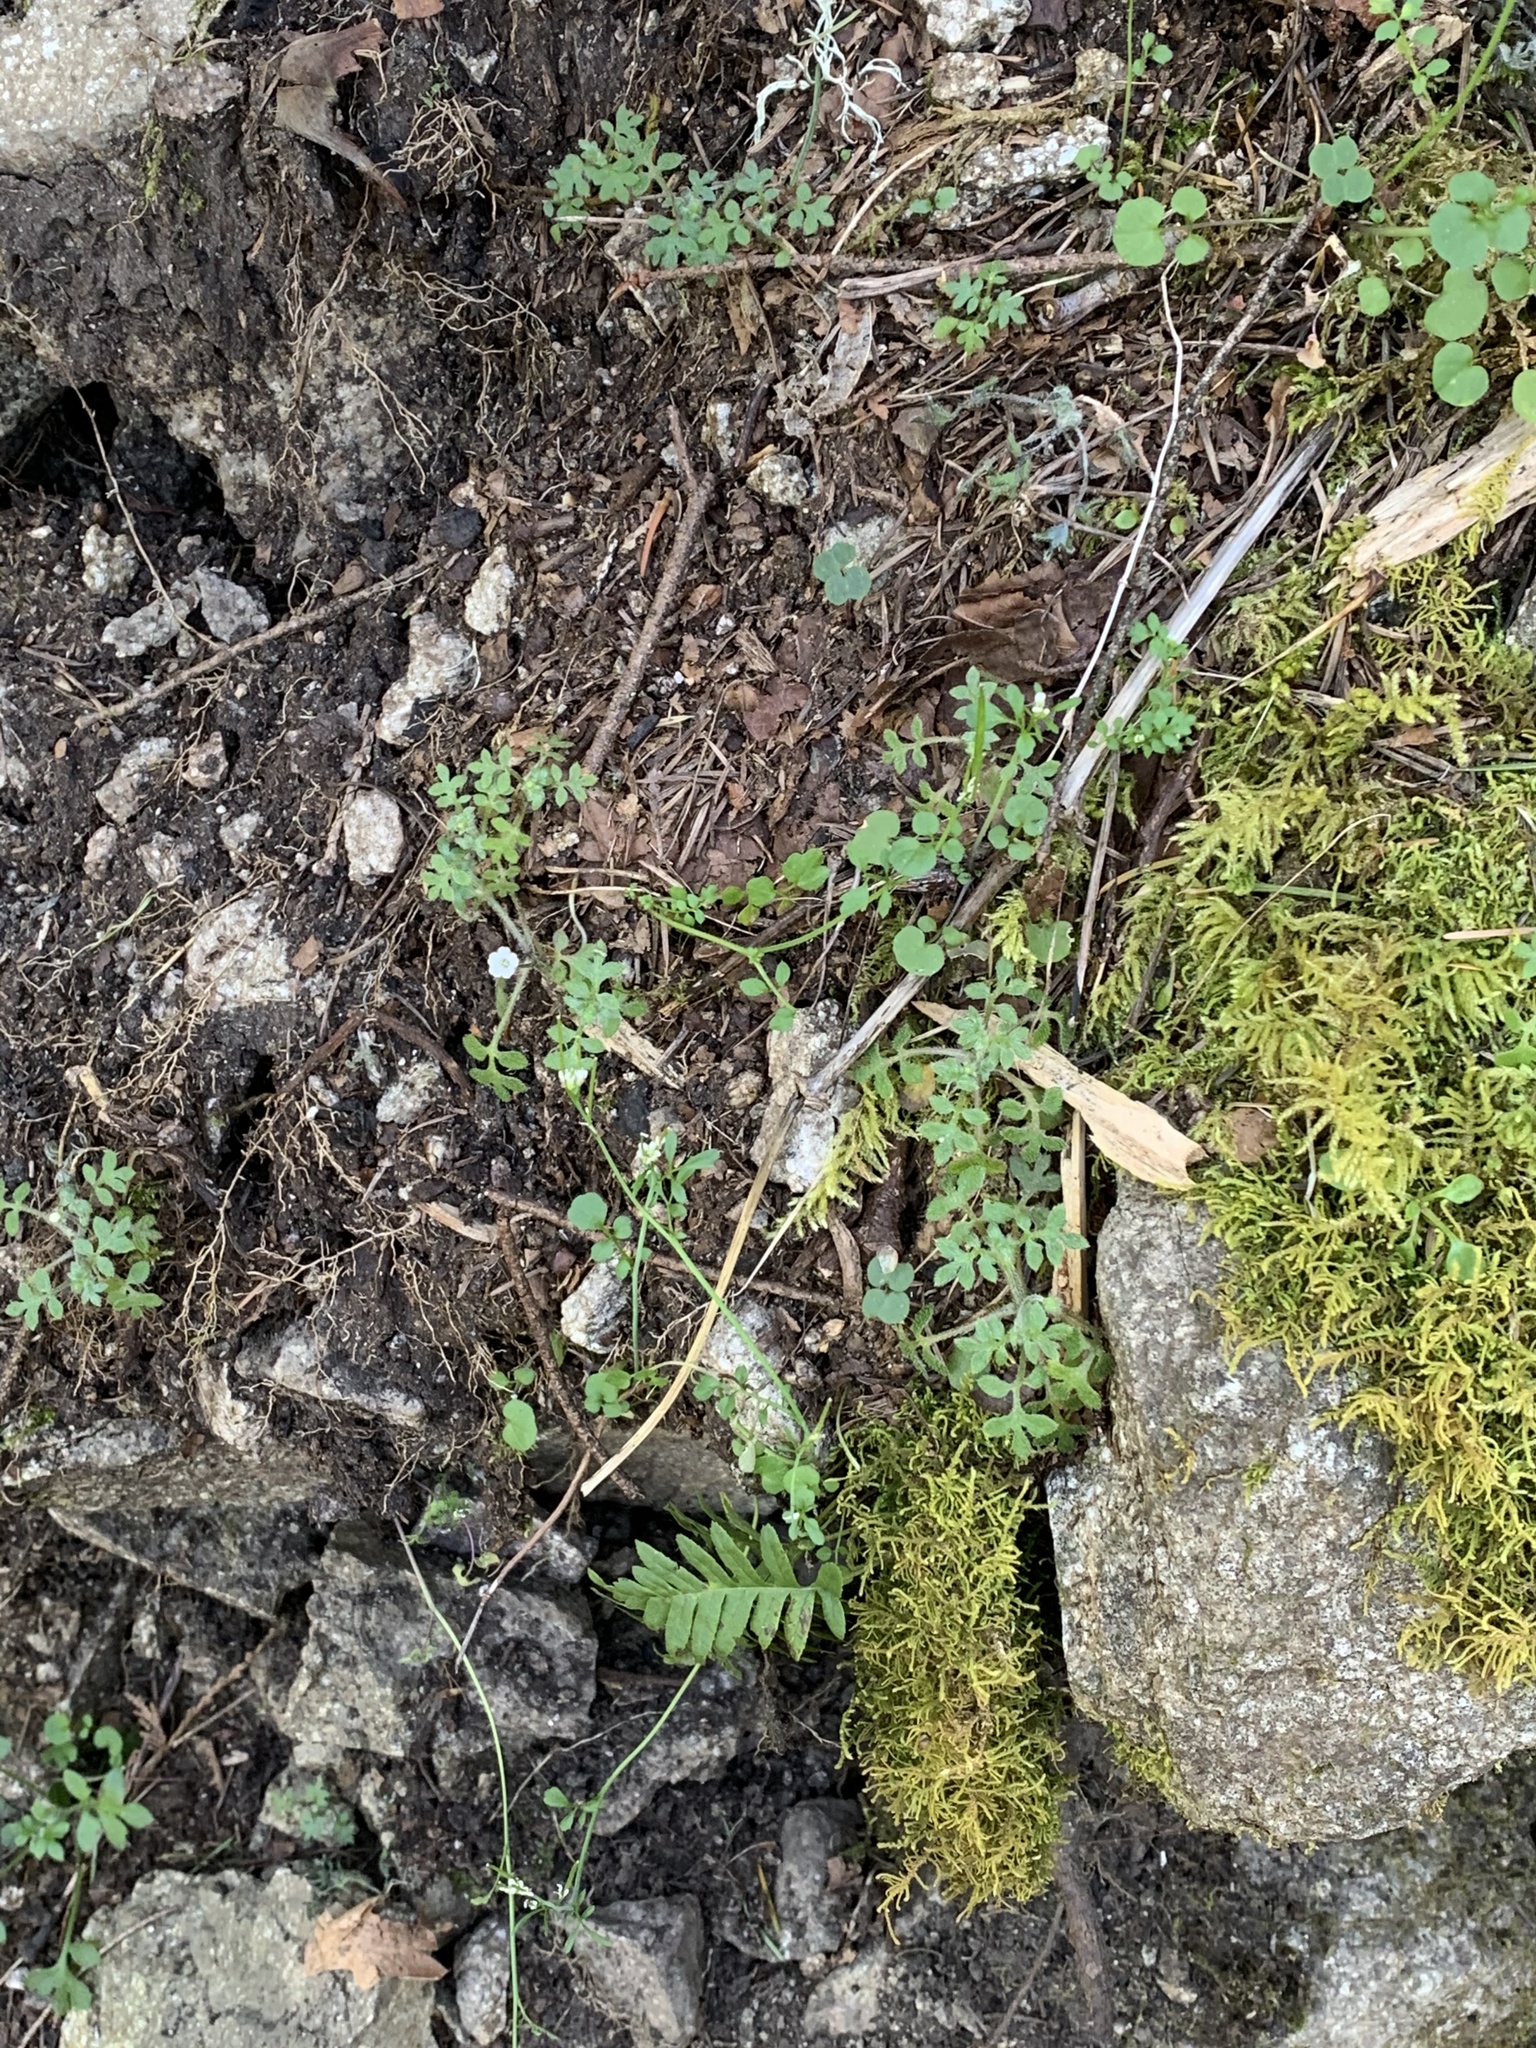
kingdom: Plantae
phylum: Tracheophyta
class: Magnoliopsida
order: Boraginales
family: Hydrophyllaceae
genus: Nemophila
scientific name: Nemophila parviflora
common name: Small-flowered baby-blue-eyes
